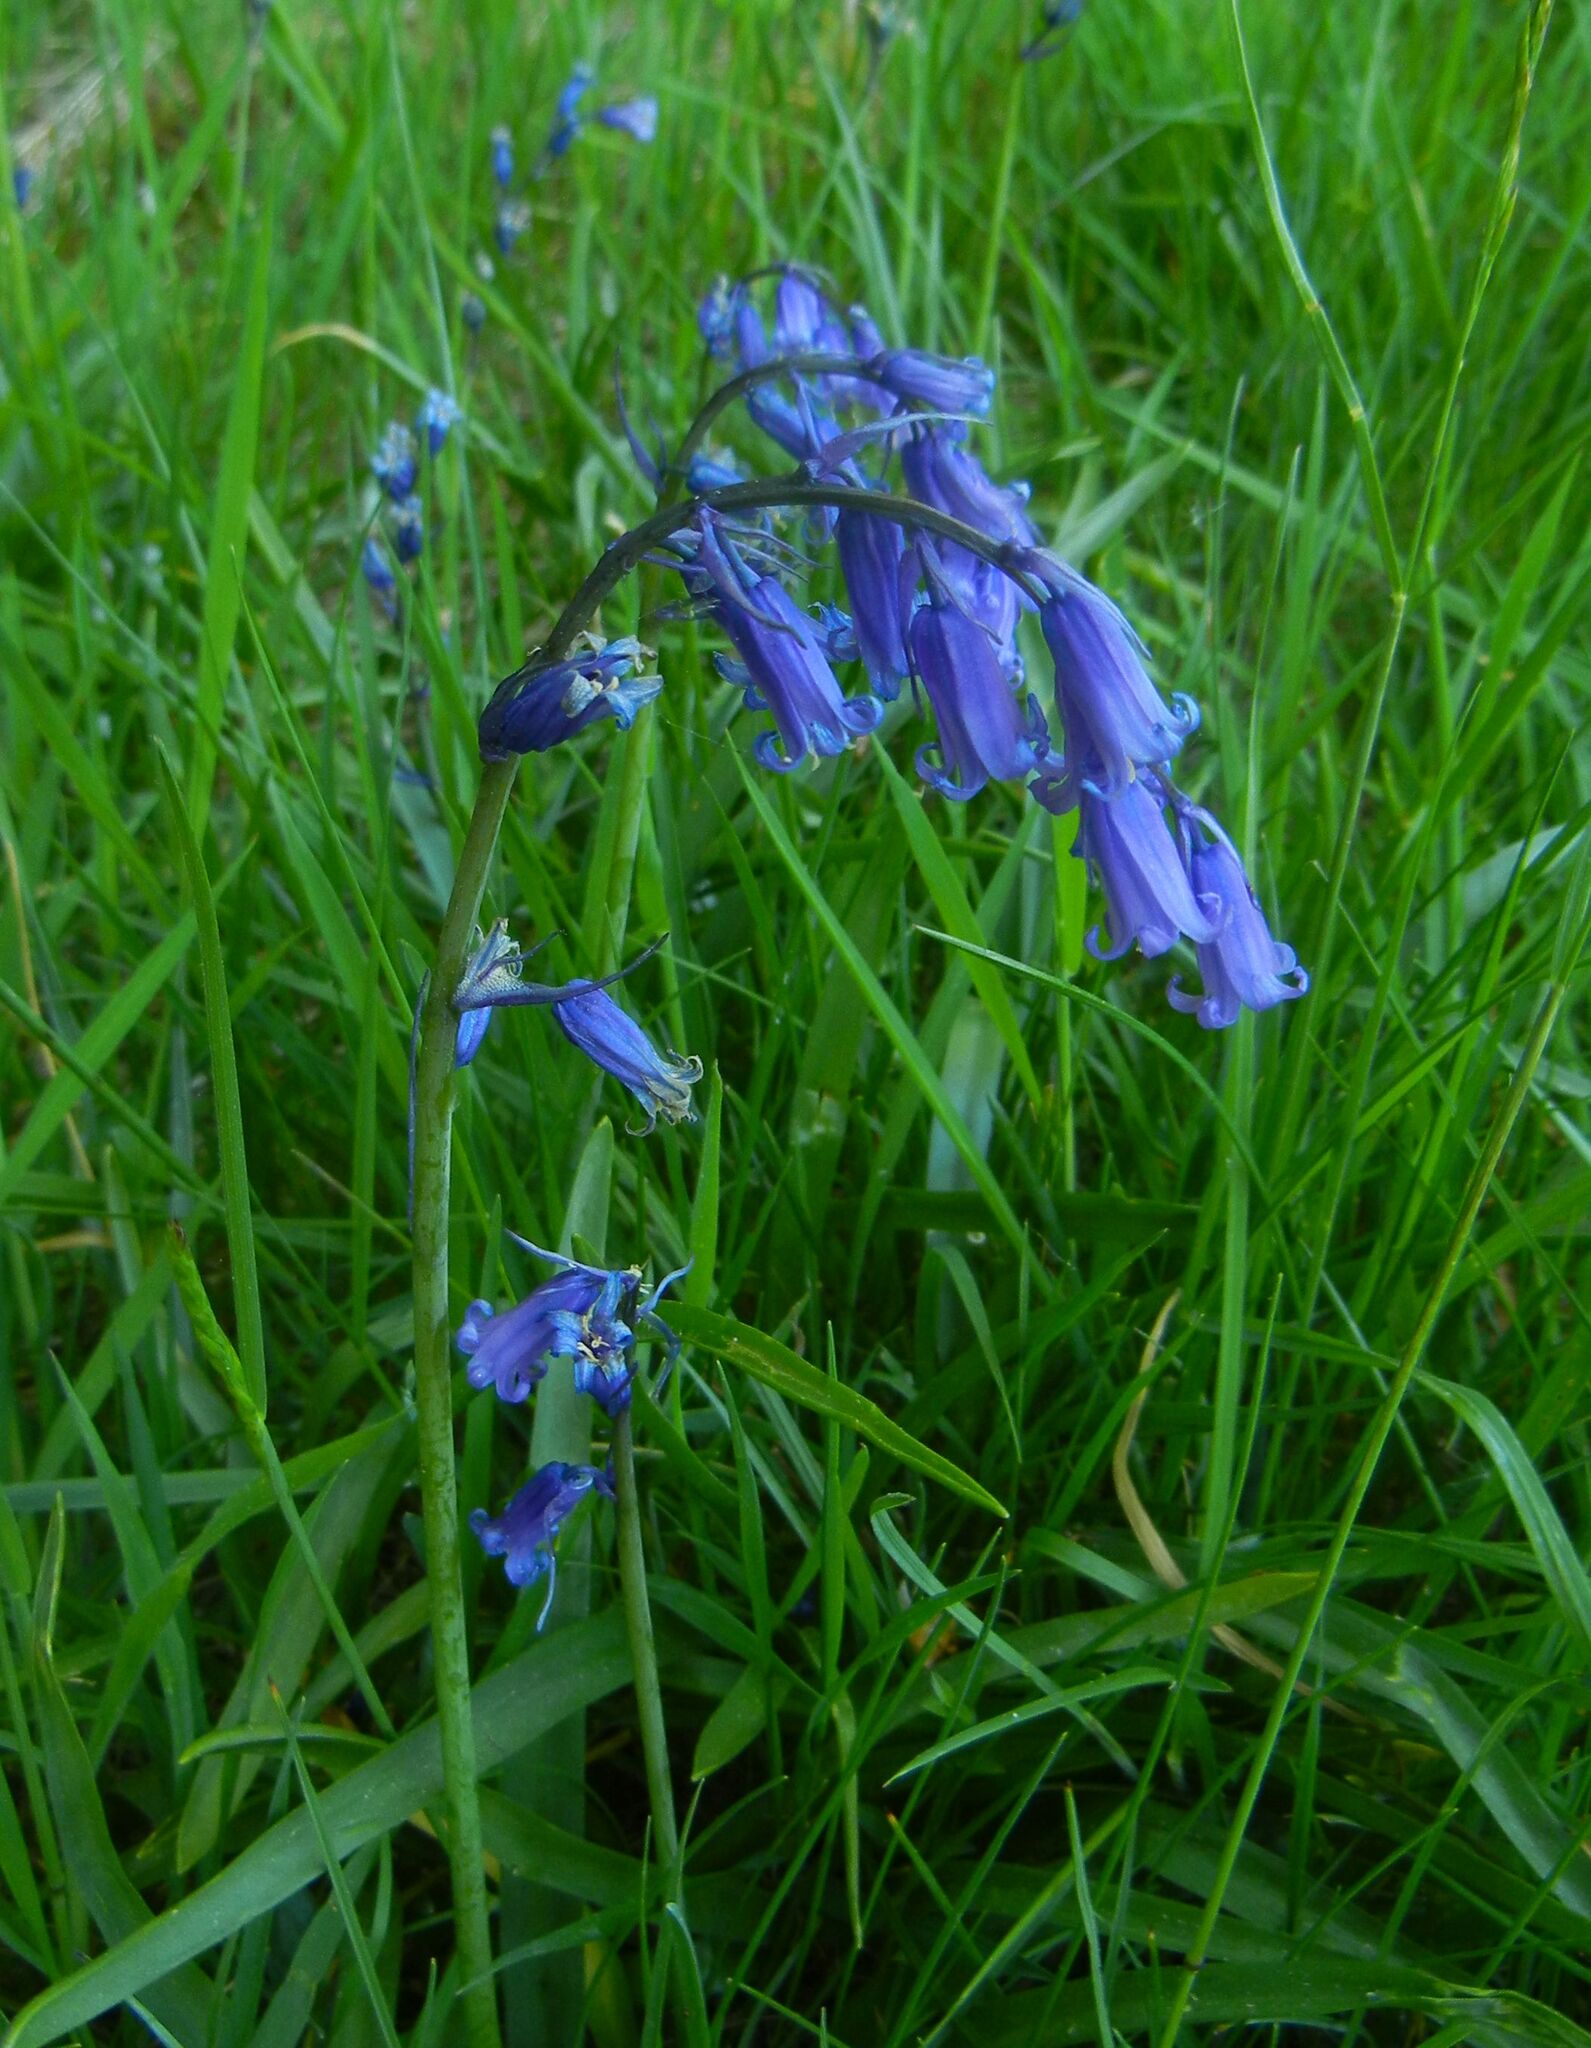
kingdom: Plantae
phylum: Tracheophyta
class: Liliopsida
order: Asparagales
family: Asparagaceae
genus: Hyacinthoides
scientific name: Hyacinthoides non-scripta
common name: Bluebell
